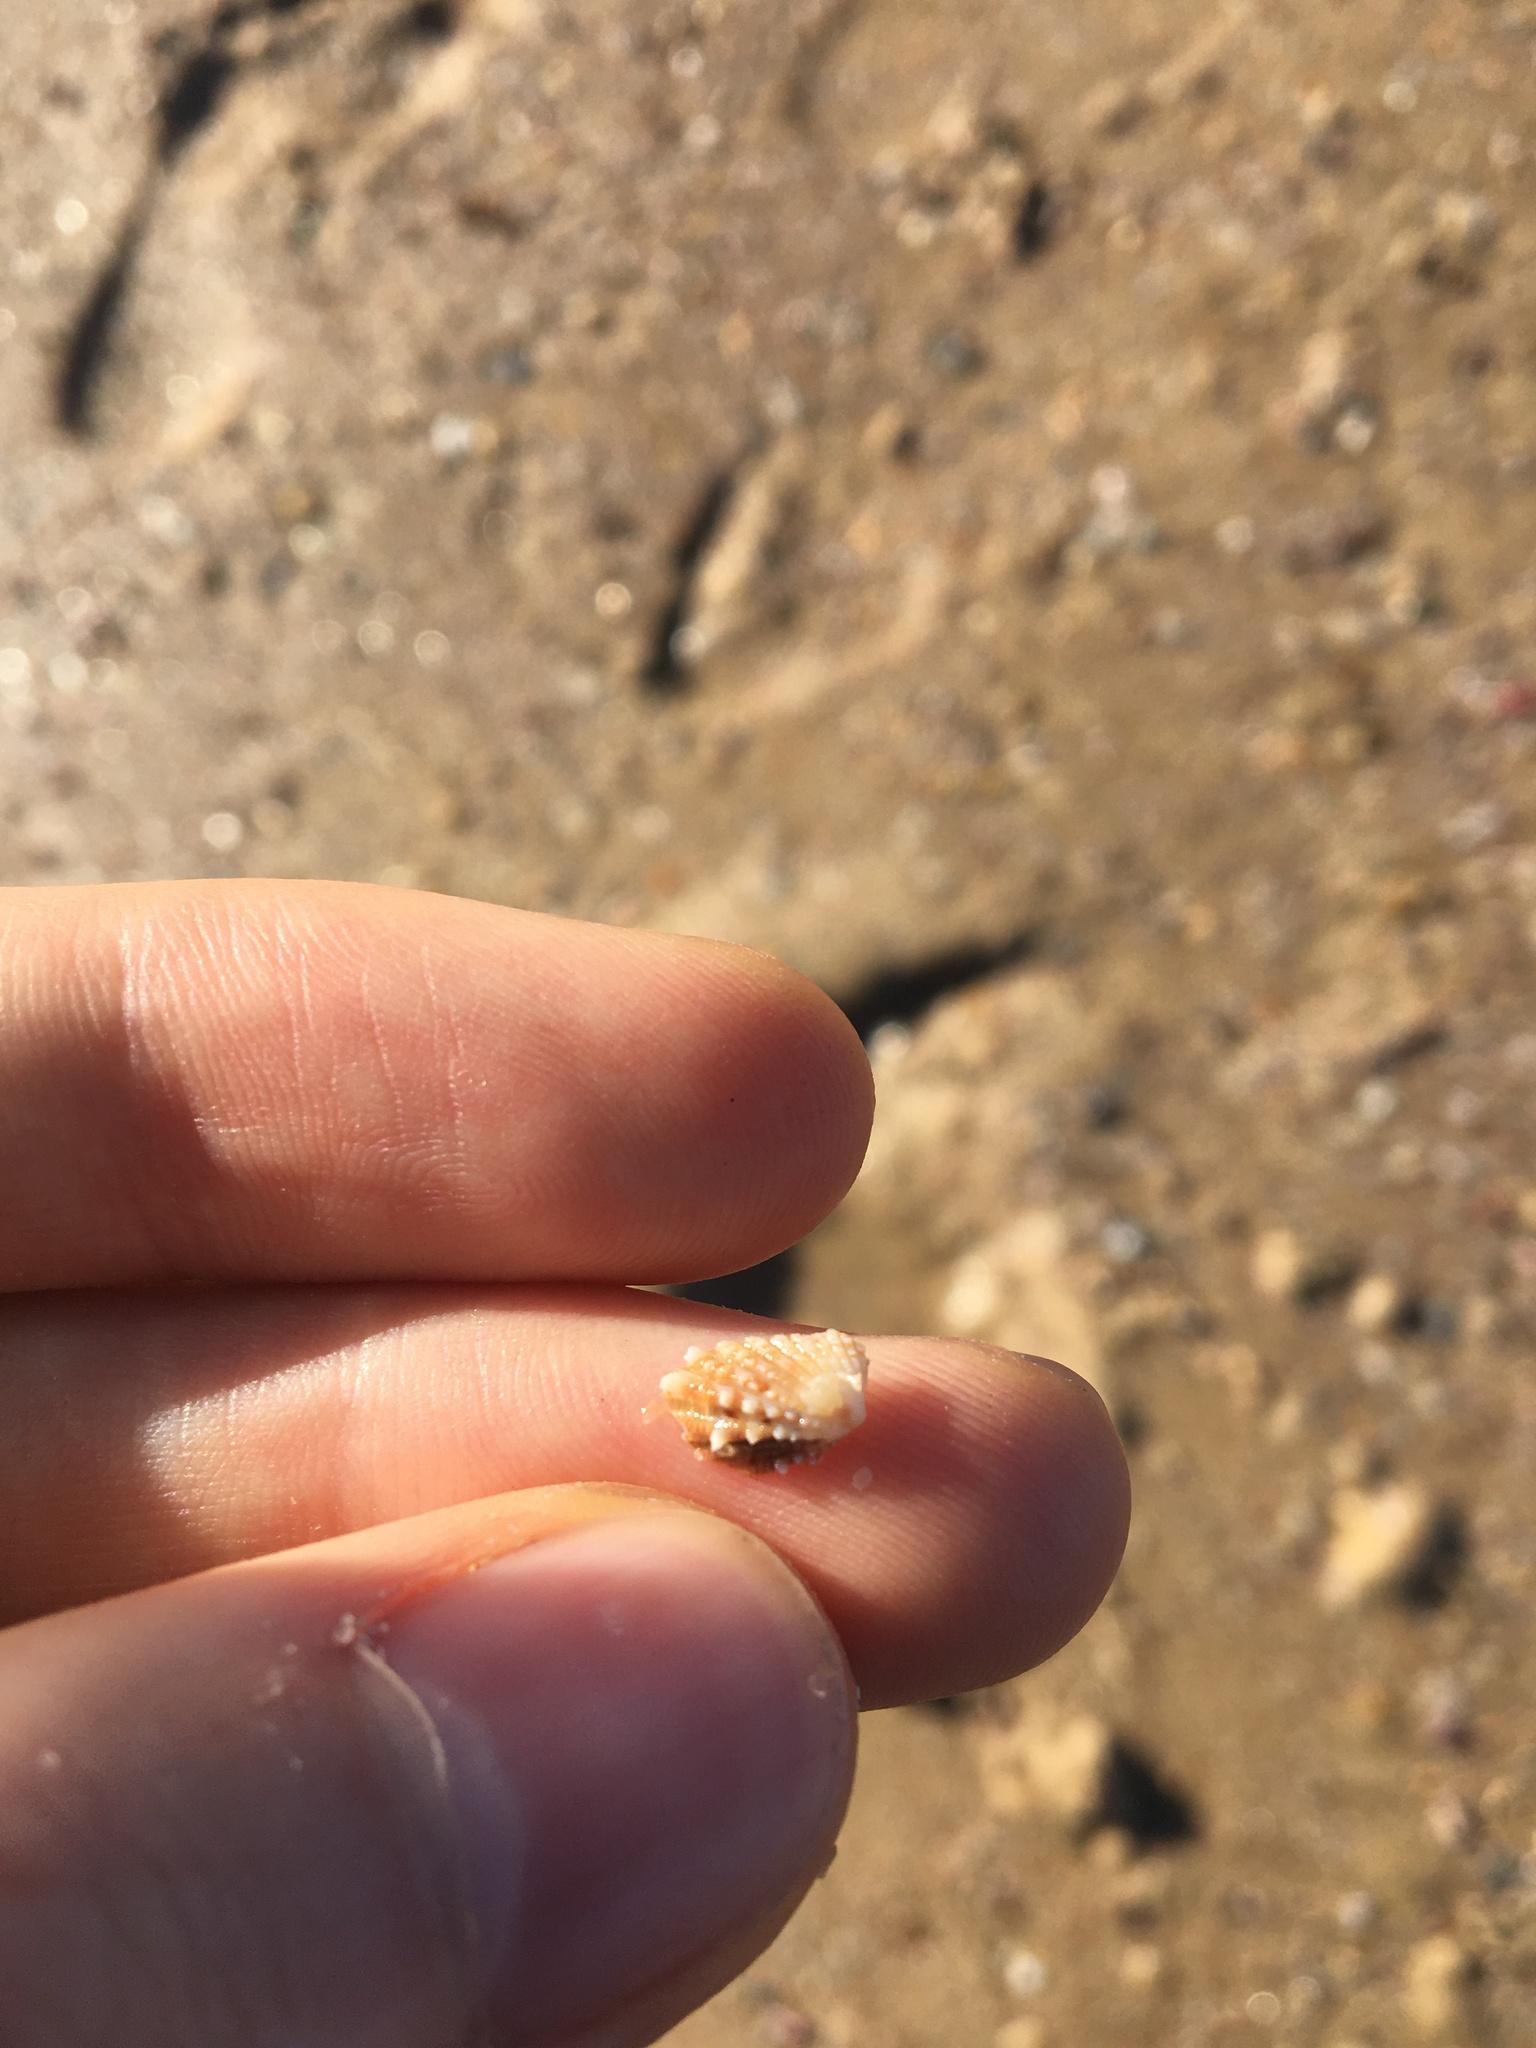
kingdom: Animalia
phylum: Mollusca
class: Bivalvia
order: Carditida
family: Carditidae
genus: Cardita
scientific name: Cardita aviculina
